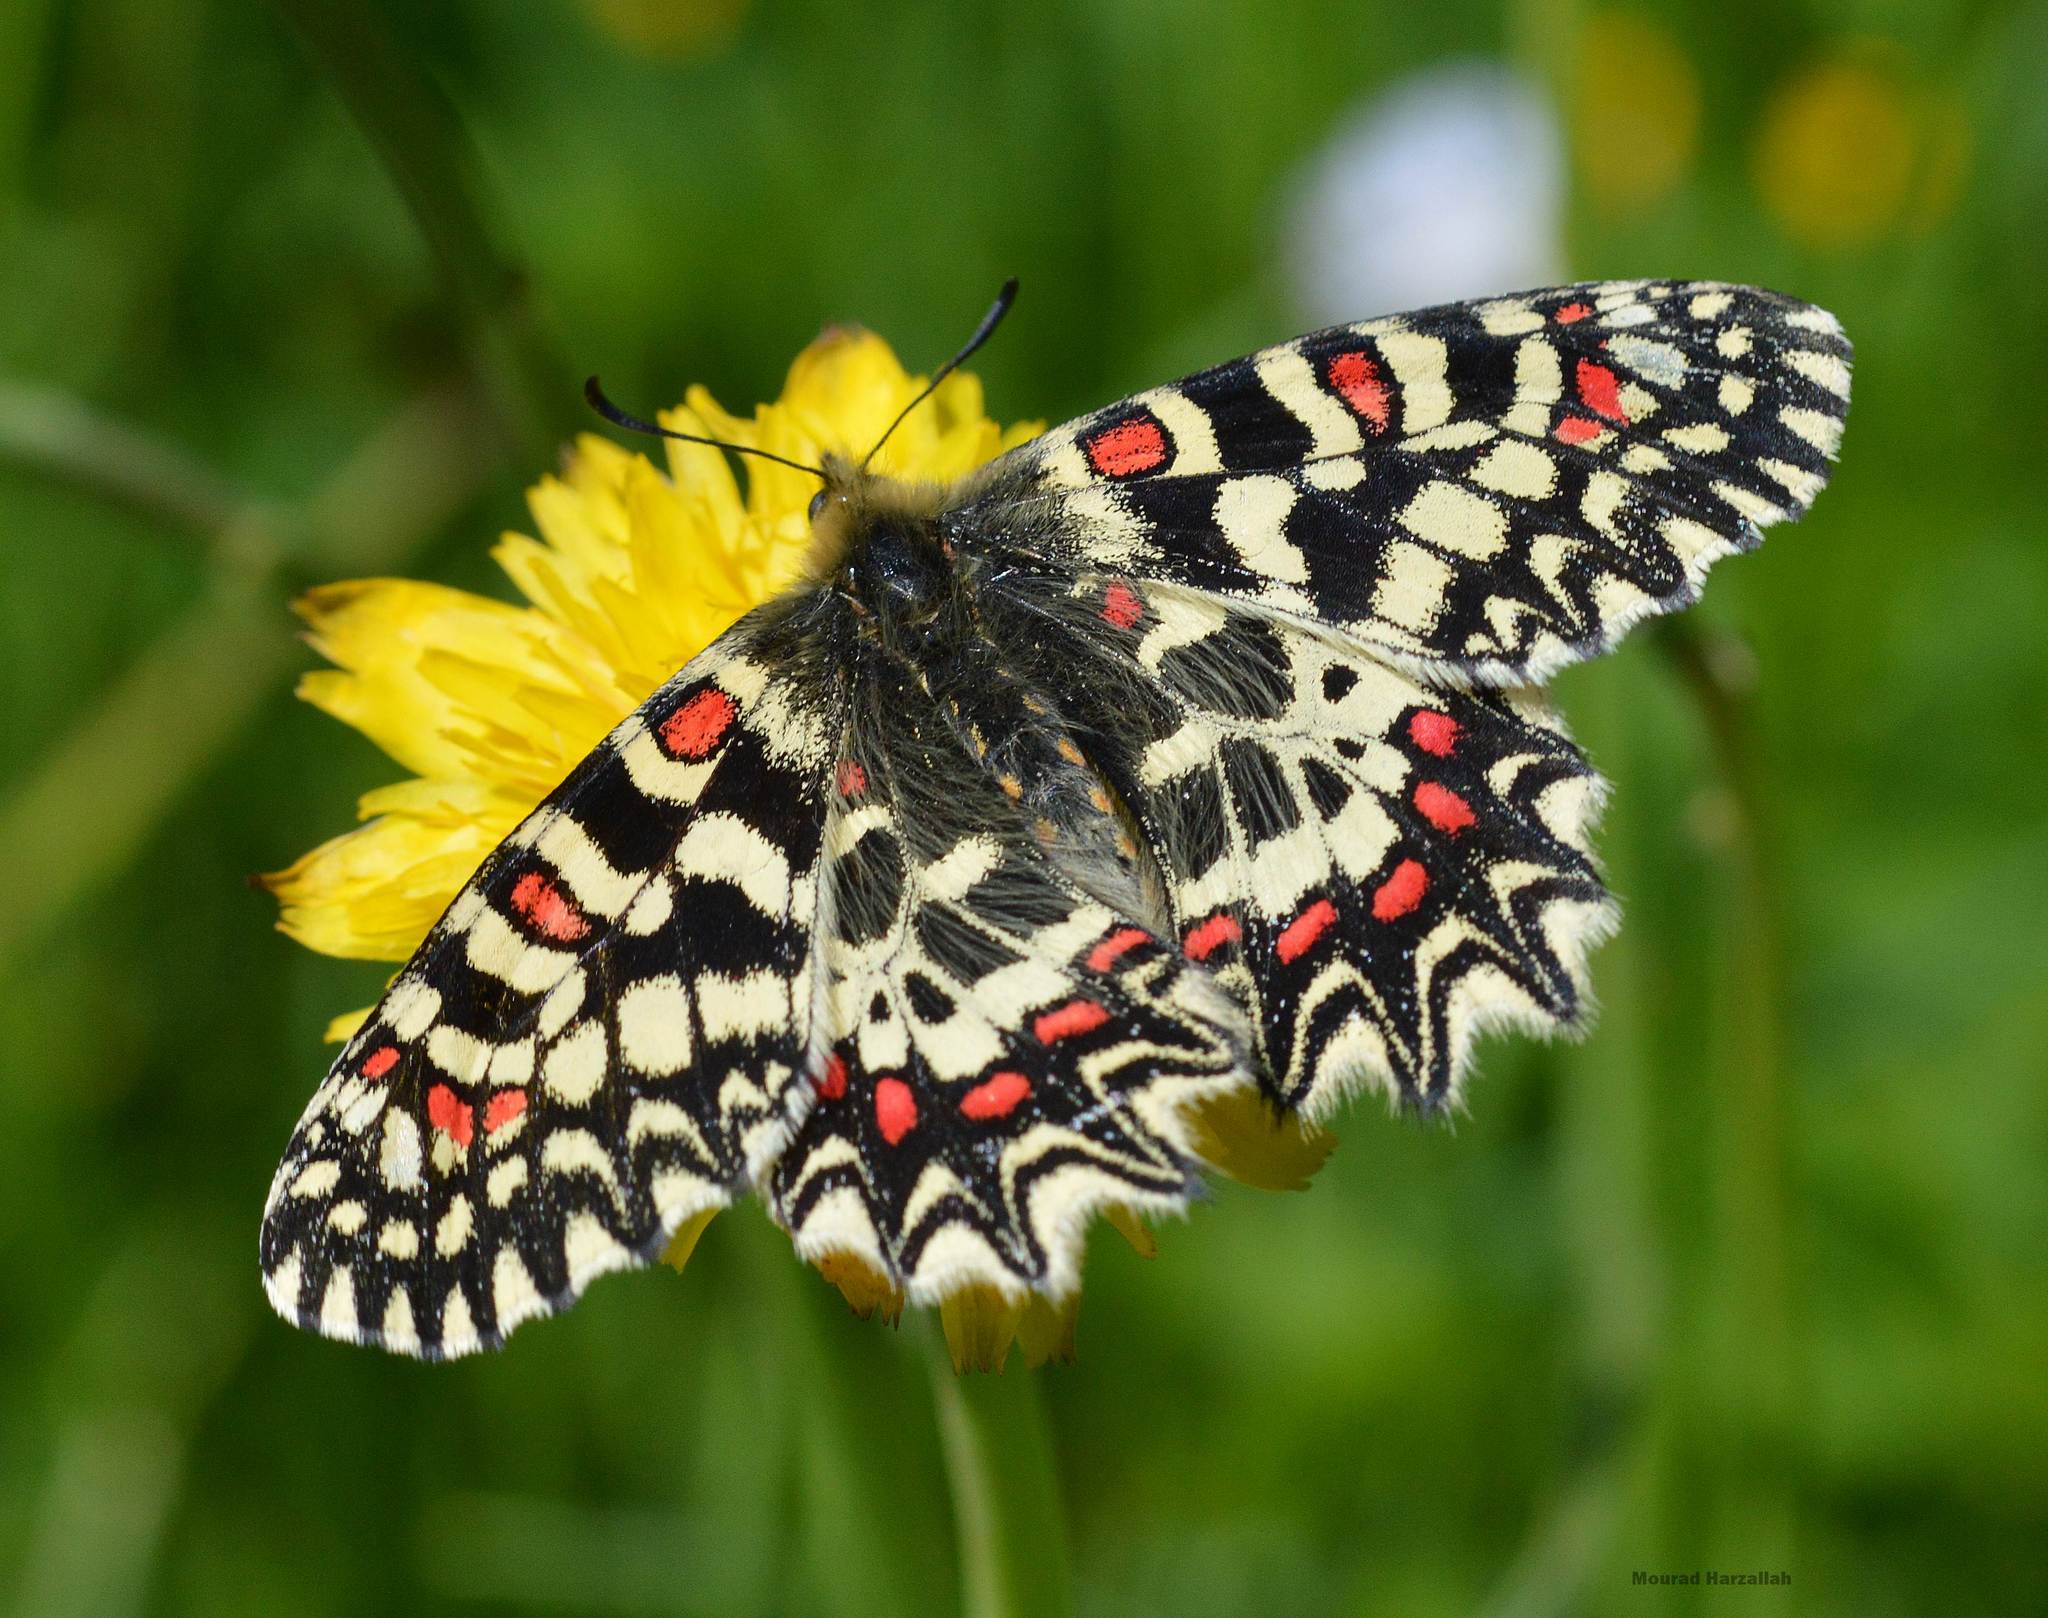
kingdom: Animalia
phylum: Arthropoda
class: Insecta
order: Lepidoptera
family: Papilionidae
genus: Zerynthia
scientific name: Zerynthia rumina
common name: Spanish festoon
